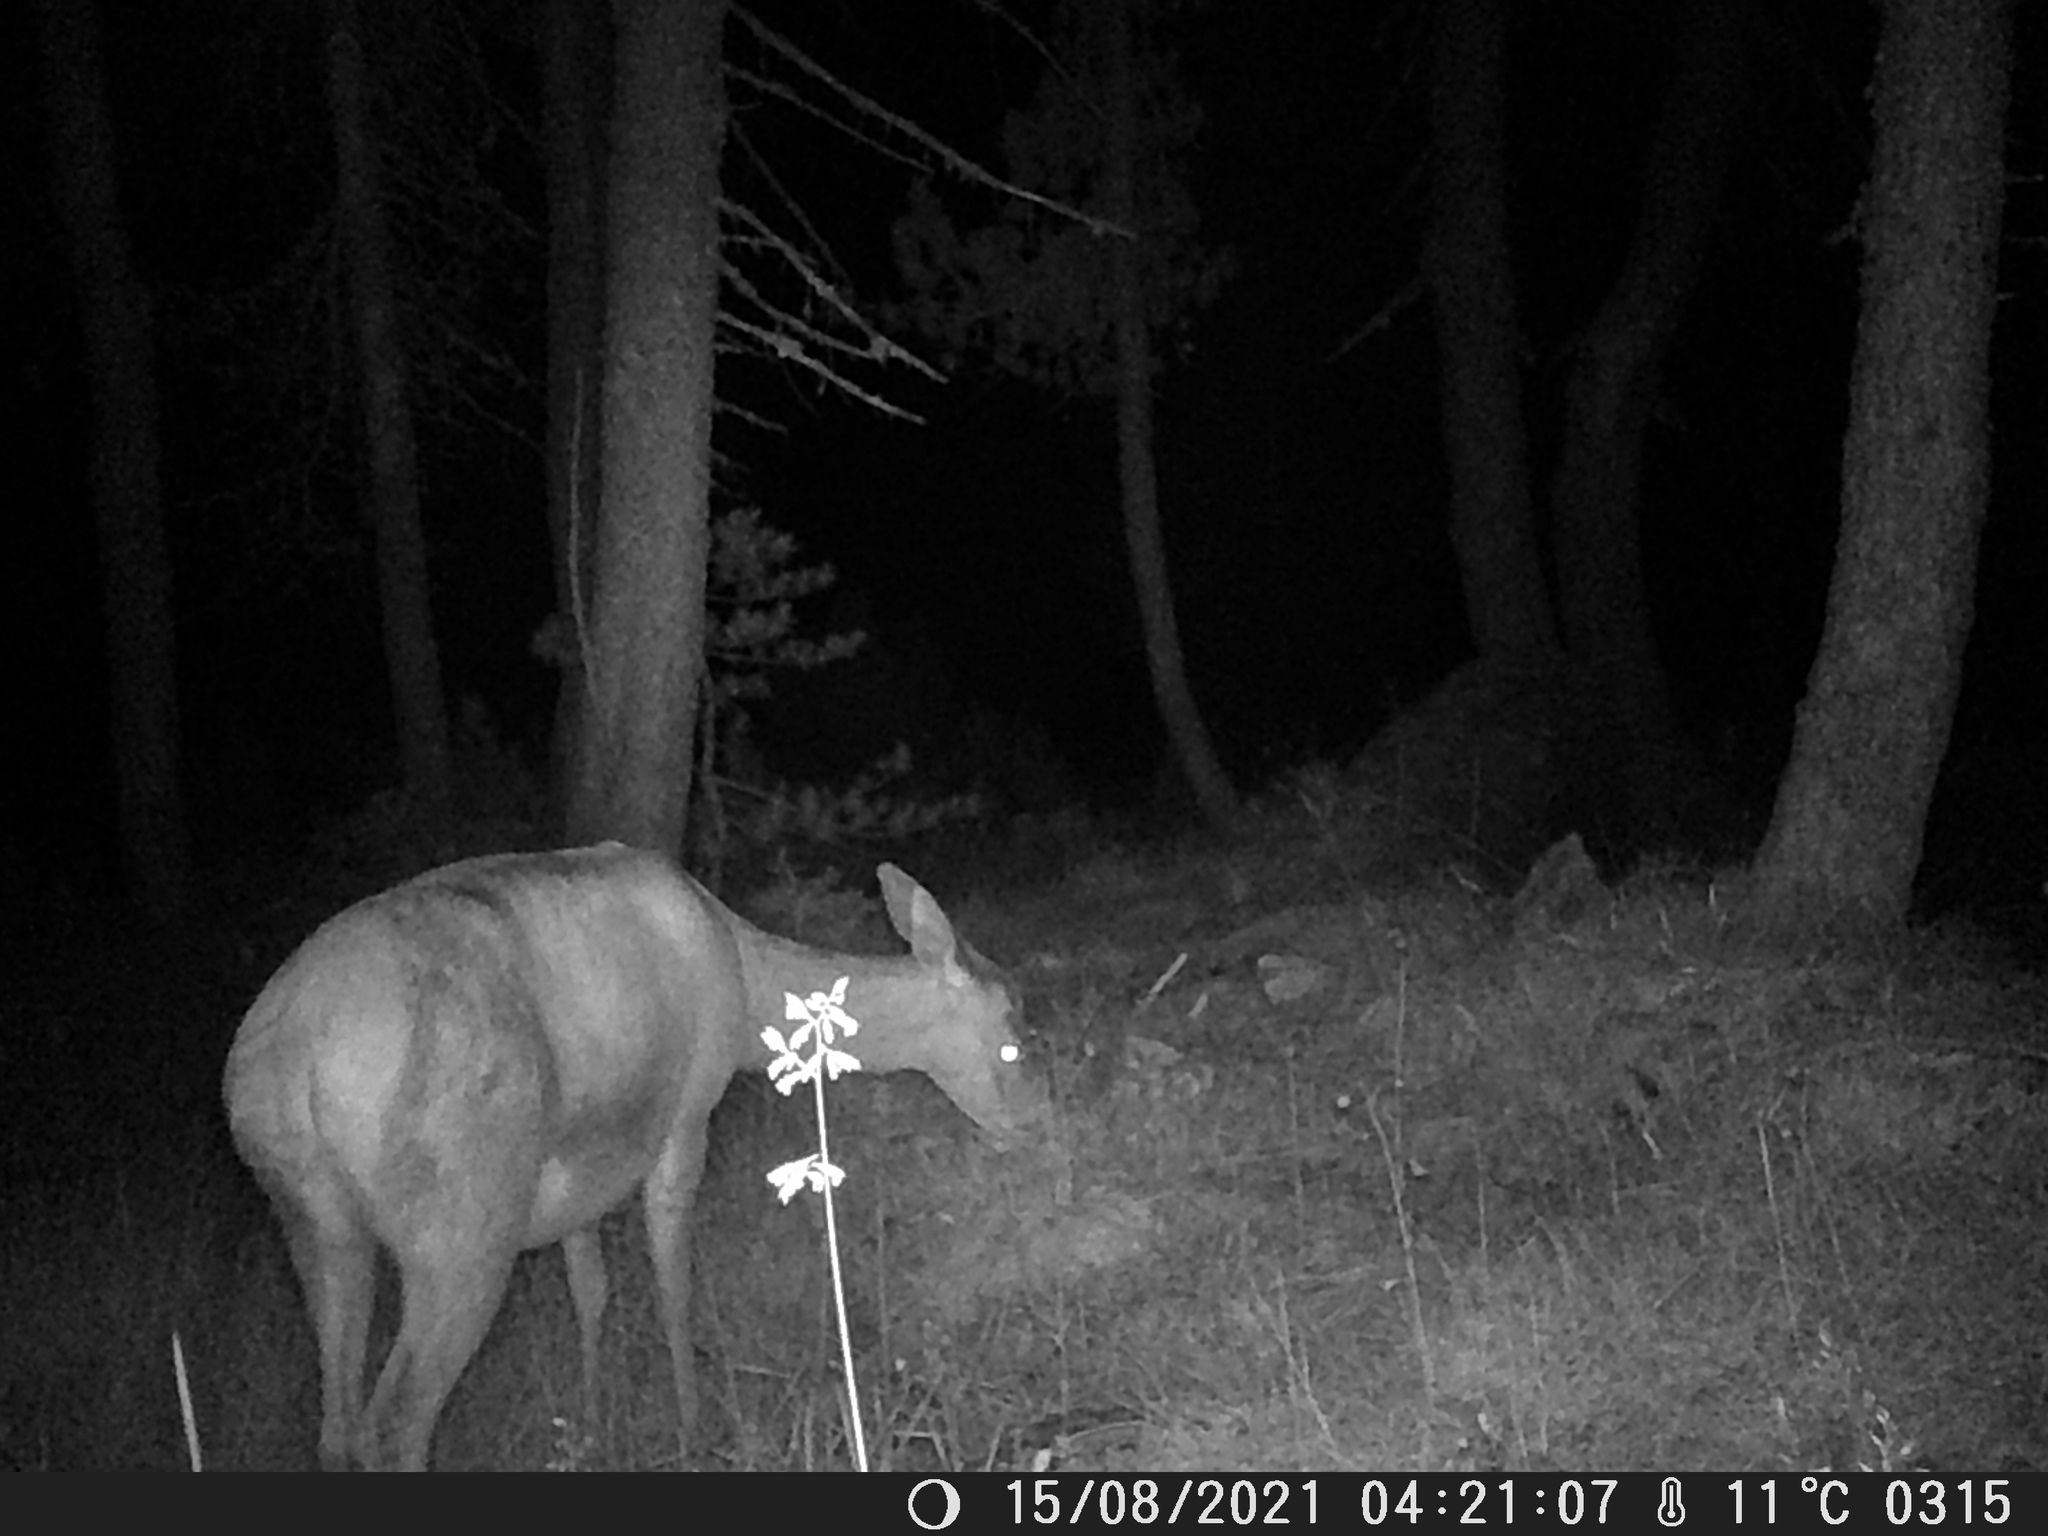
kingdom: Animalia
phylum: Chordata
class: Mammalia
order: Artiodactyla
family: Cervidae
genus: Cervus
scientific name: Cervus elaphus
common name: Red deer
